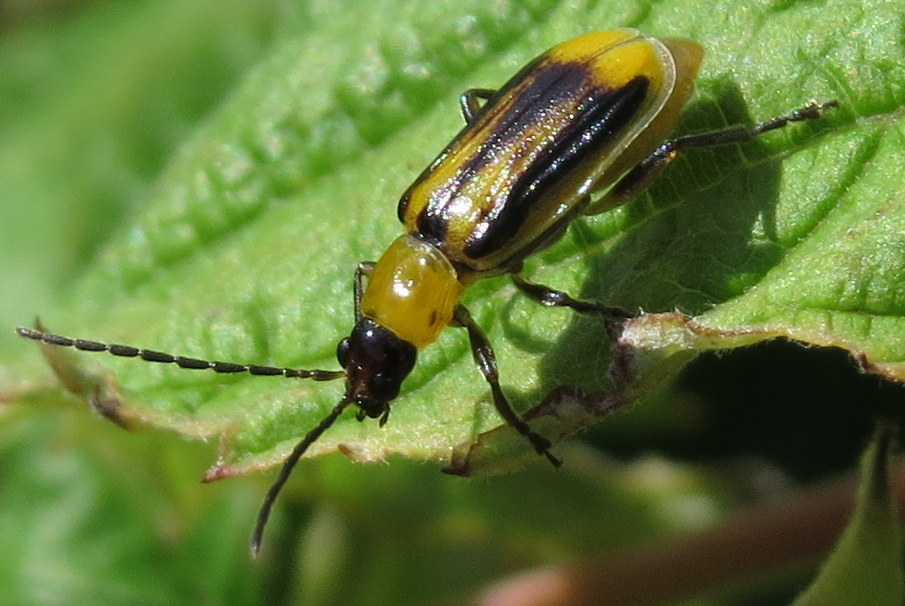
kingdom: Animalia
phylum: Arthropoda
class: Insecta
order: Coleoptera
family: Chrysomelidae
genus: Diabrotica
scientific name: Diabrotica virgifera
